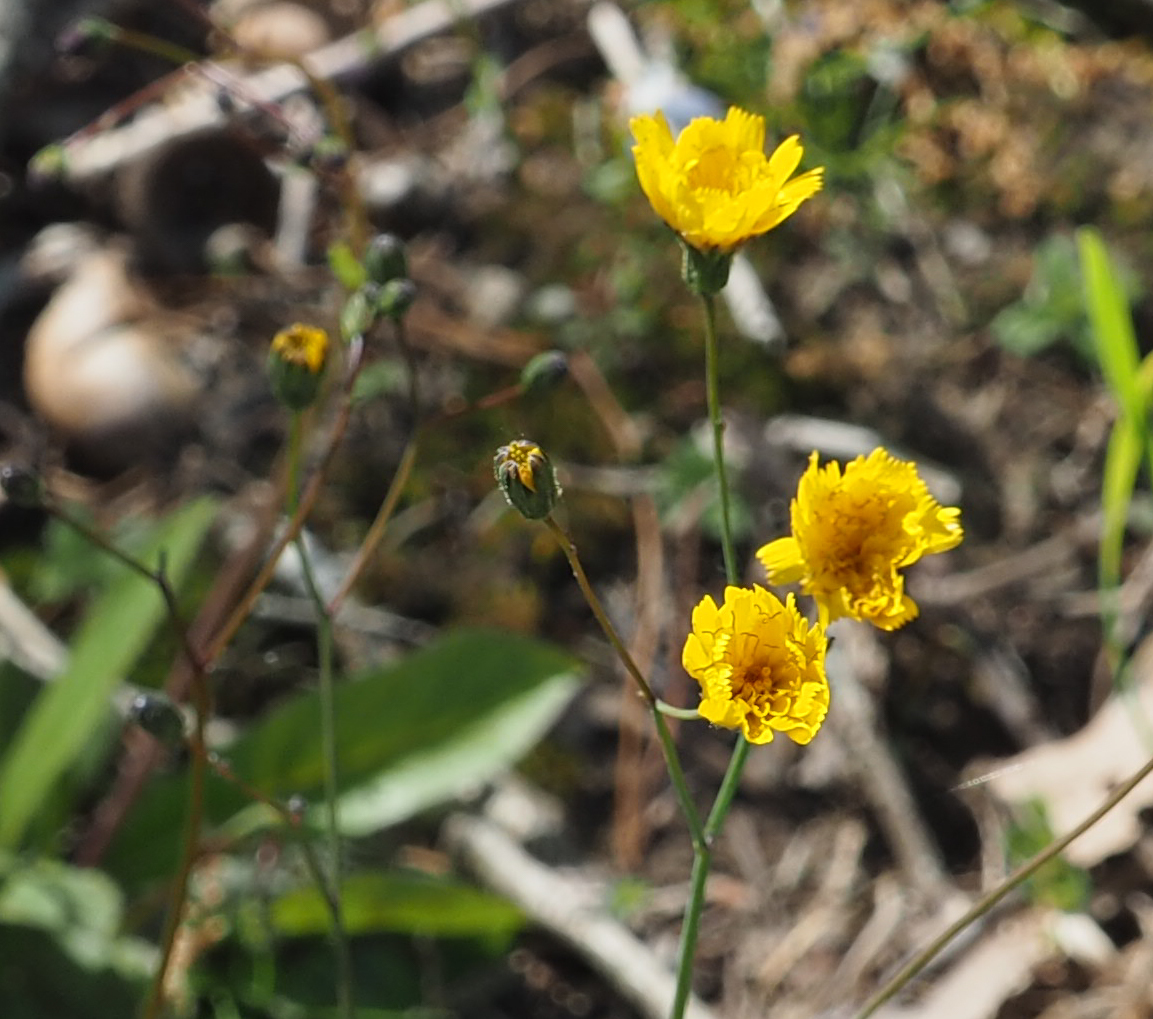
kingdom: Plantae
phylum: Tracheophyta
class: Magnoliopsida
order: Asterales
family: Asteraceae
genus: Hieracium
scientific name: Hieracium venosum
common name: Rattlesnake hawkweed
